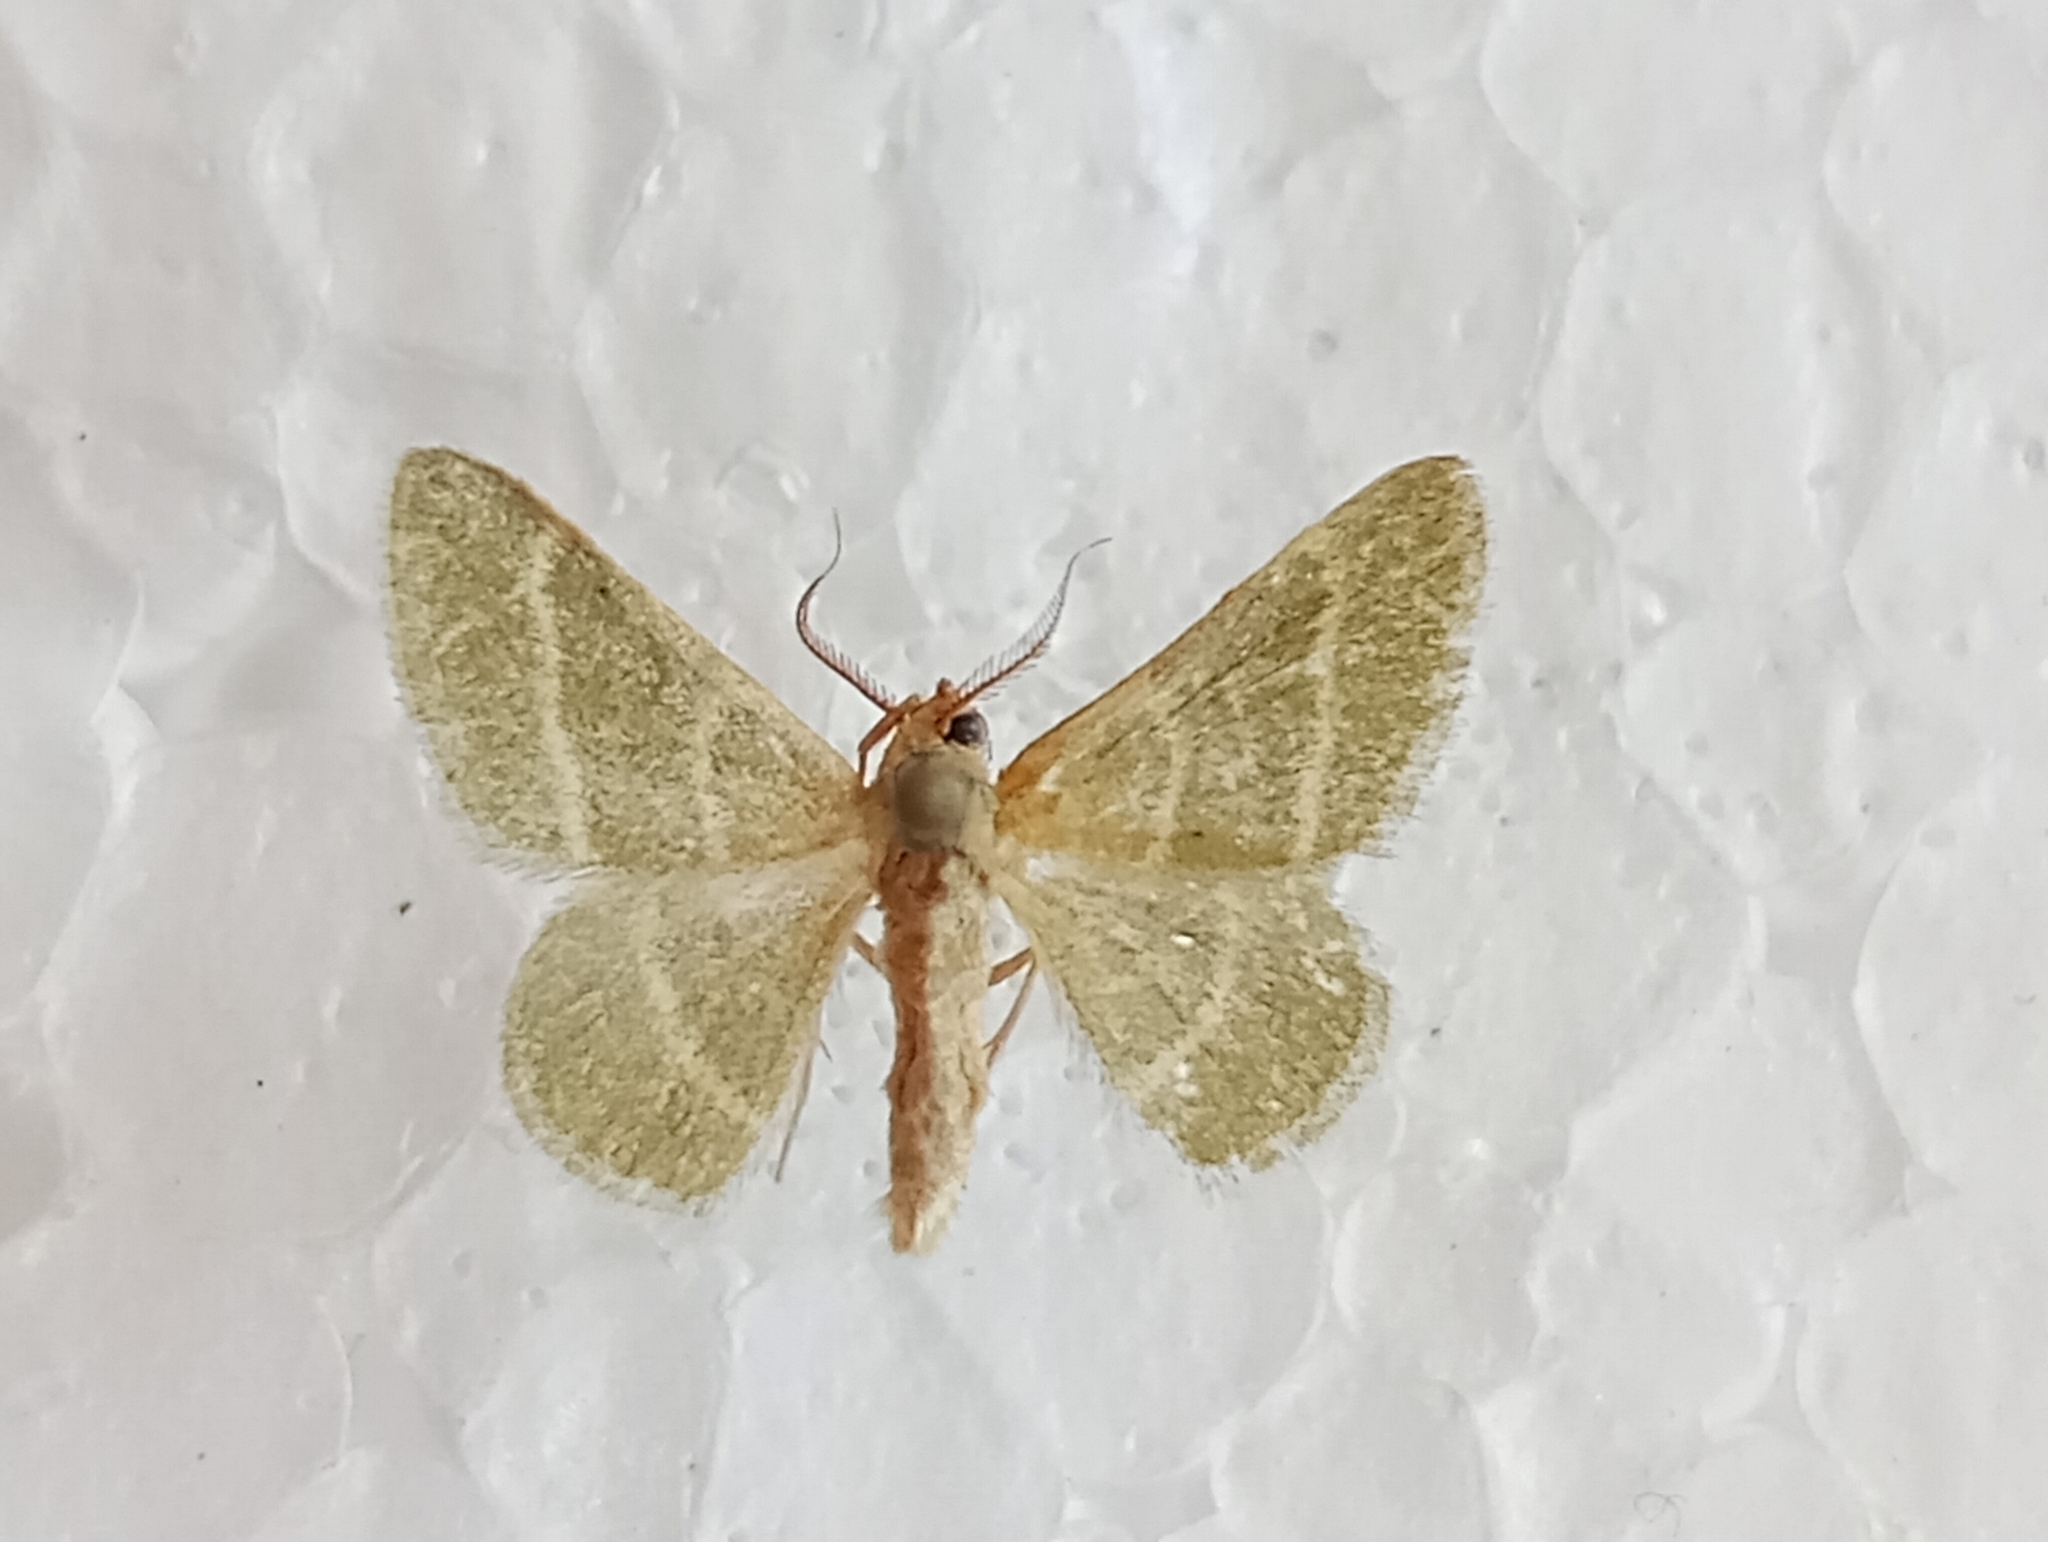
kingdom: Animalia
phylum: Arthropoda
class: Insecta
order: Lepidoptera
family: Geometridae
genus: Microloxia
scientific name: Microloxia herbaria
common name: Herb emerald
